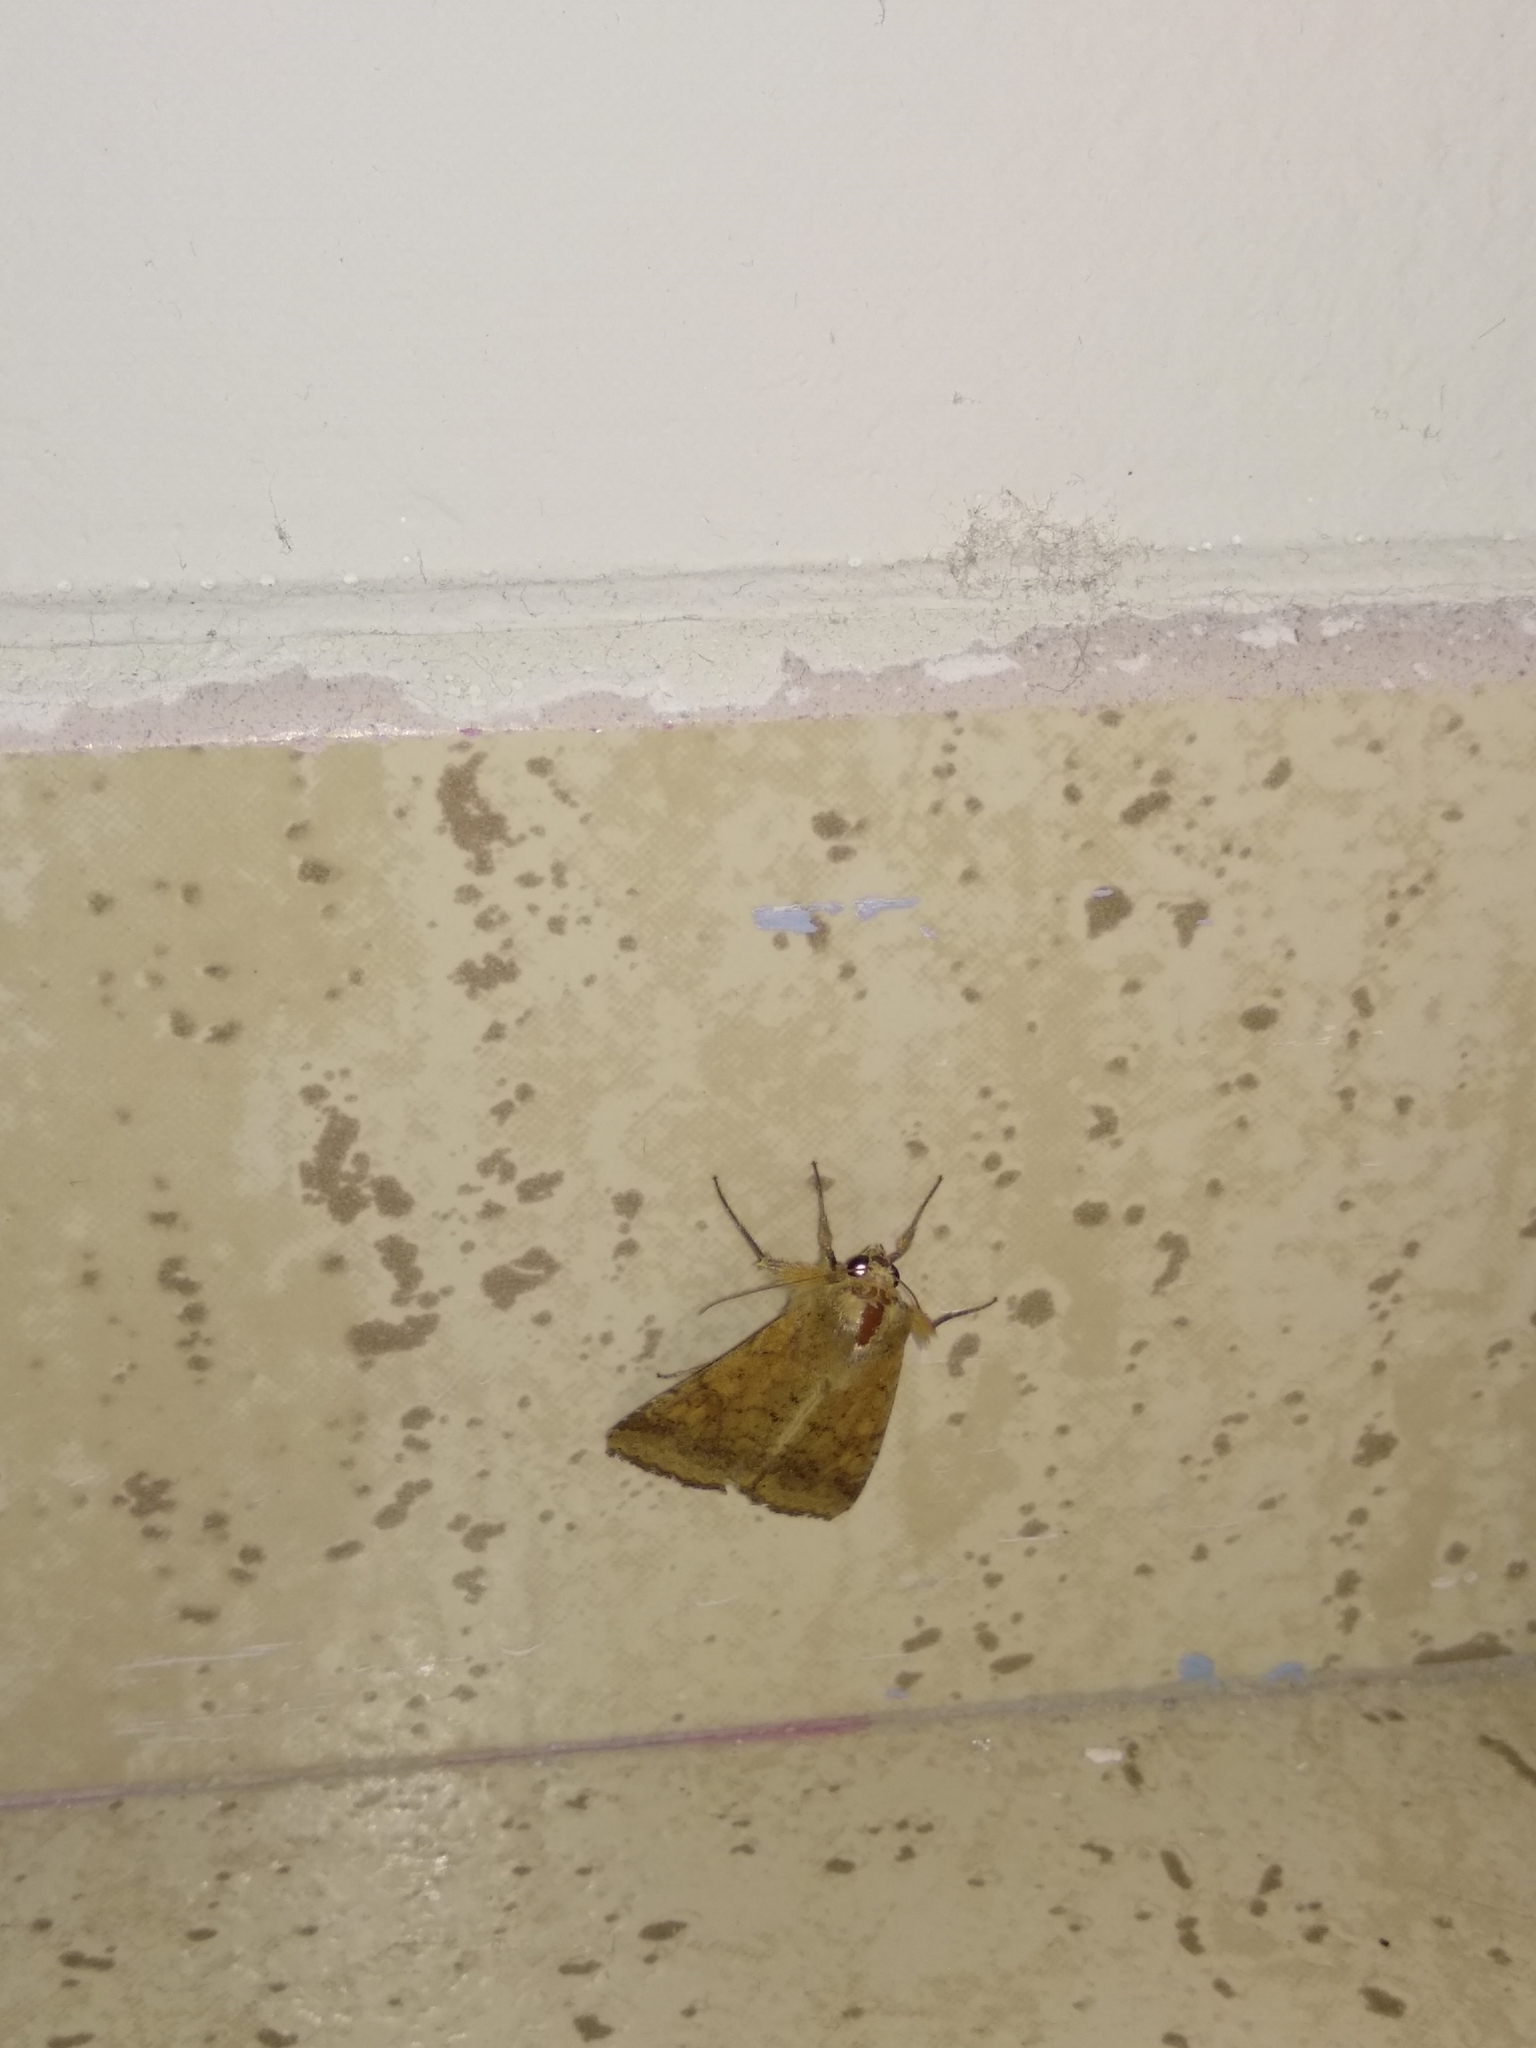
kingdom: Animalia
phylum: Arthropoda
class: Insecta
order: Lepidoptera
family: Noctuidae
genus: Helicoverpa
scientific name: Helicoverpa armigera
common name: Cotton bollworm
